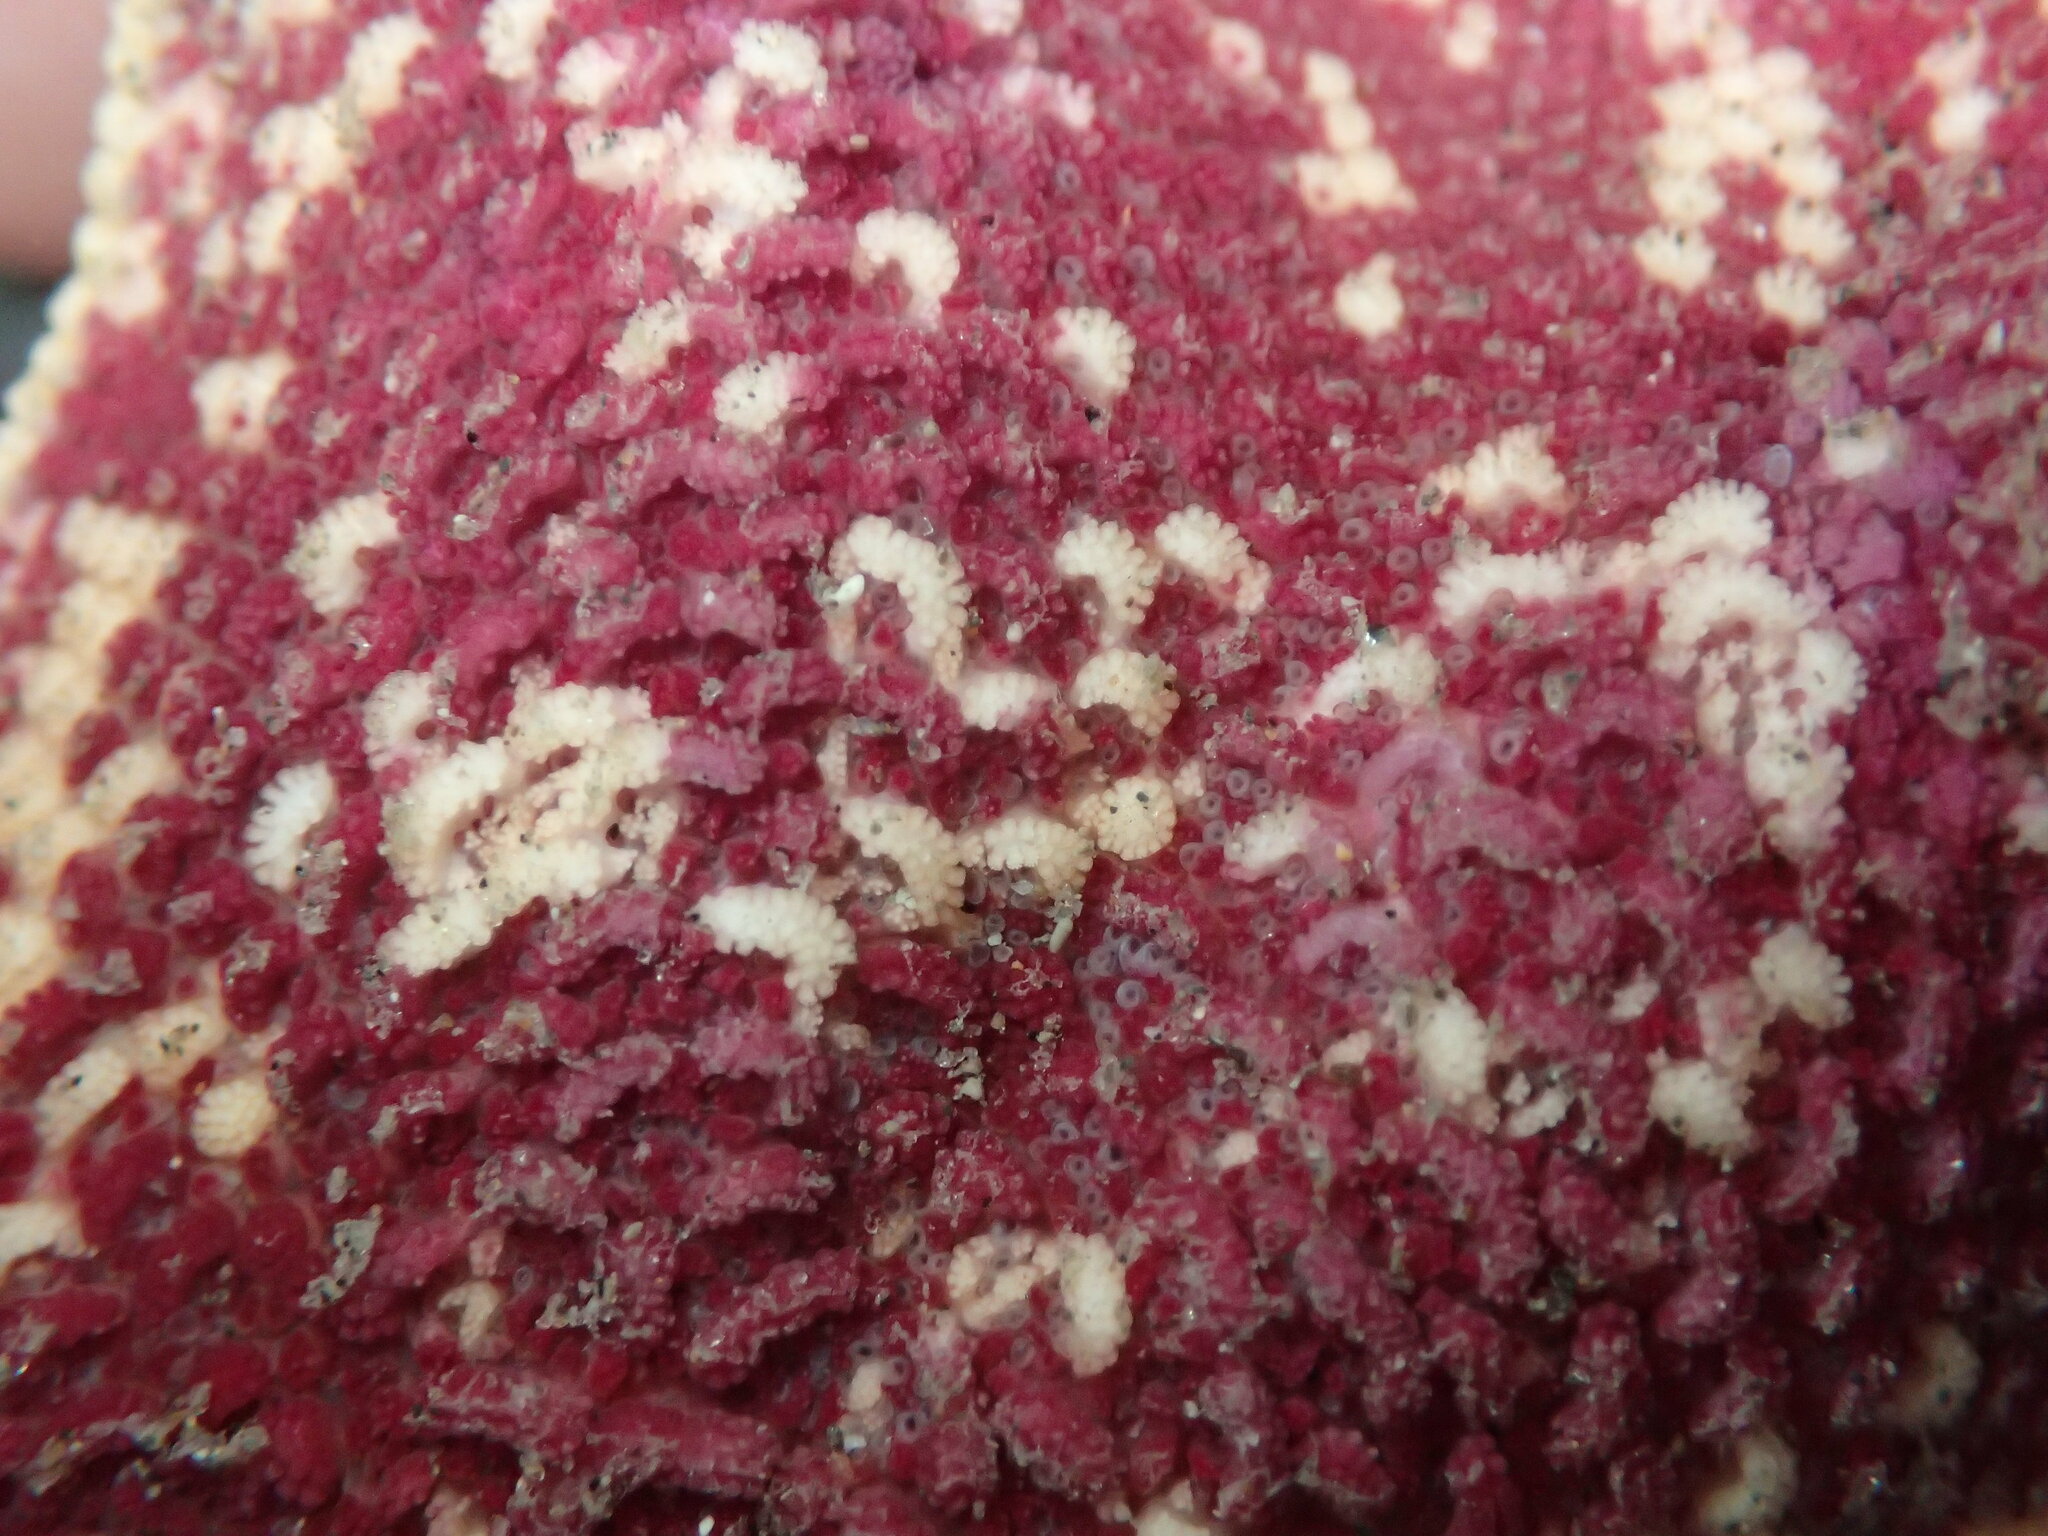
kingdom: Animalia
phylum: Echinodermata
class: Asteroidea
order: Valvatida
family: Asterinidae
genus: Patiria
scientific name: Patiria miniata
